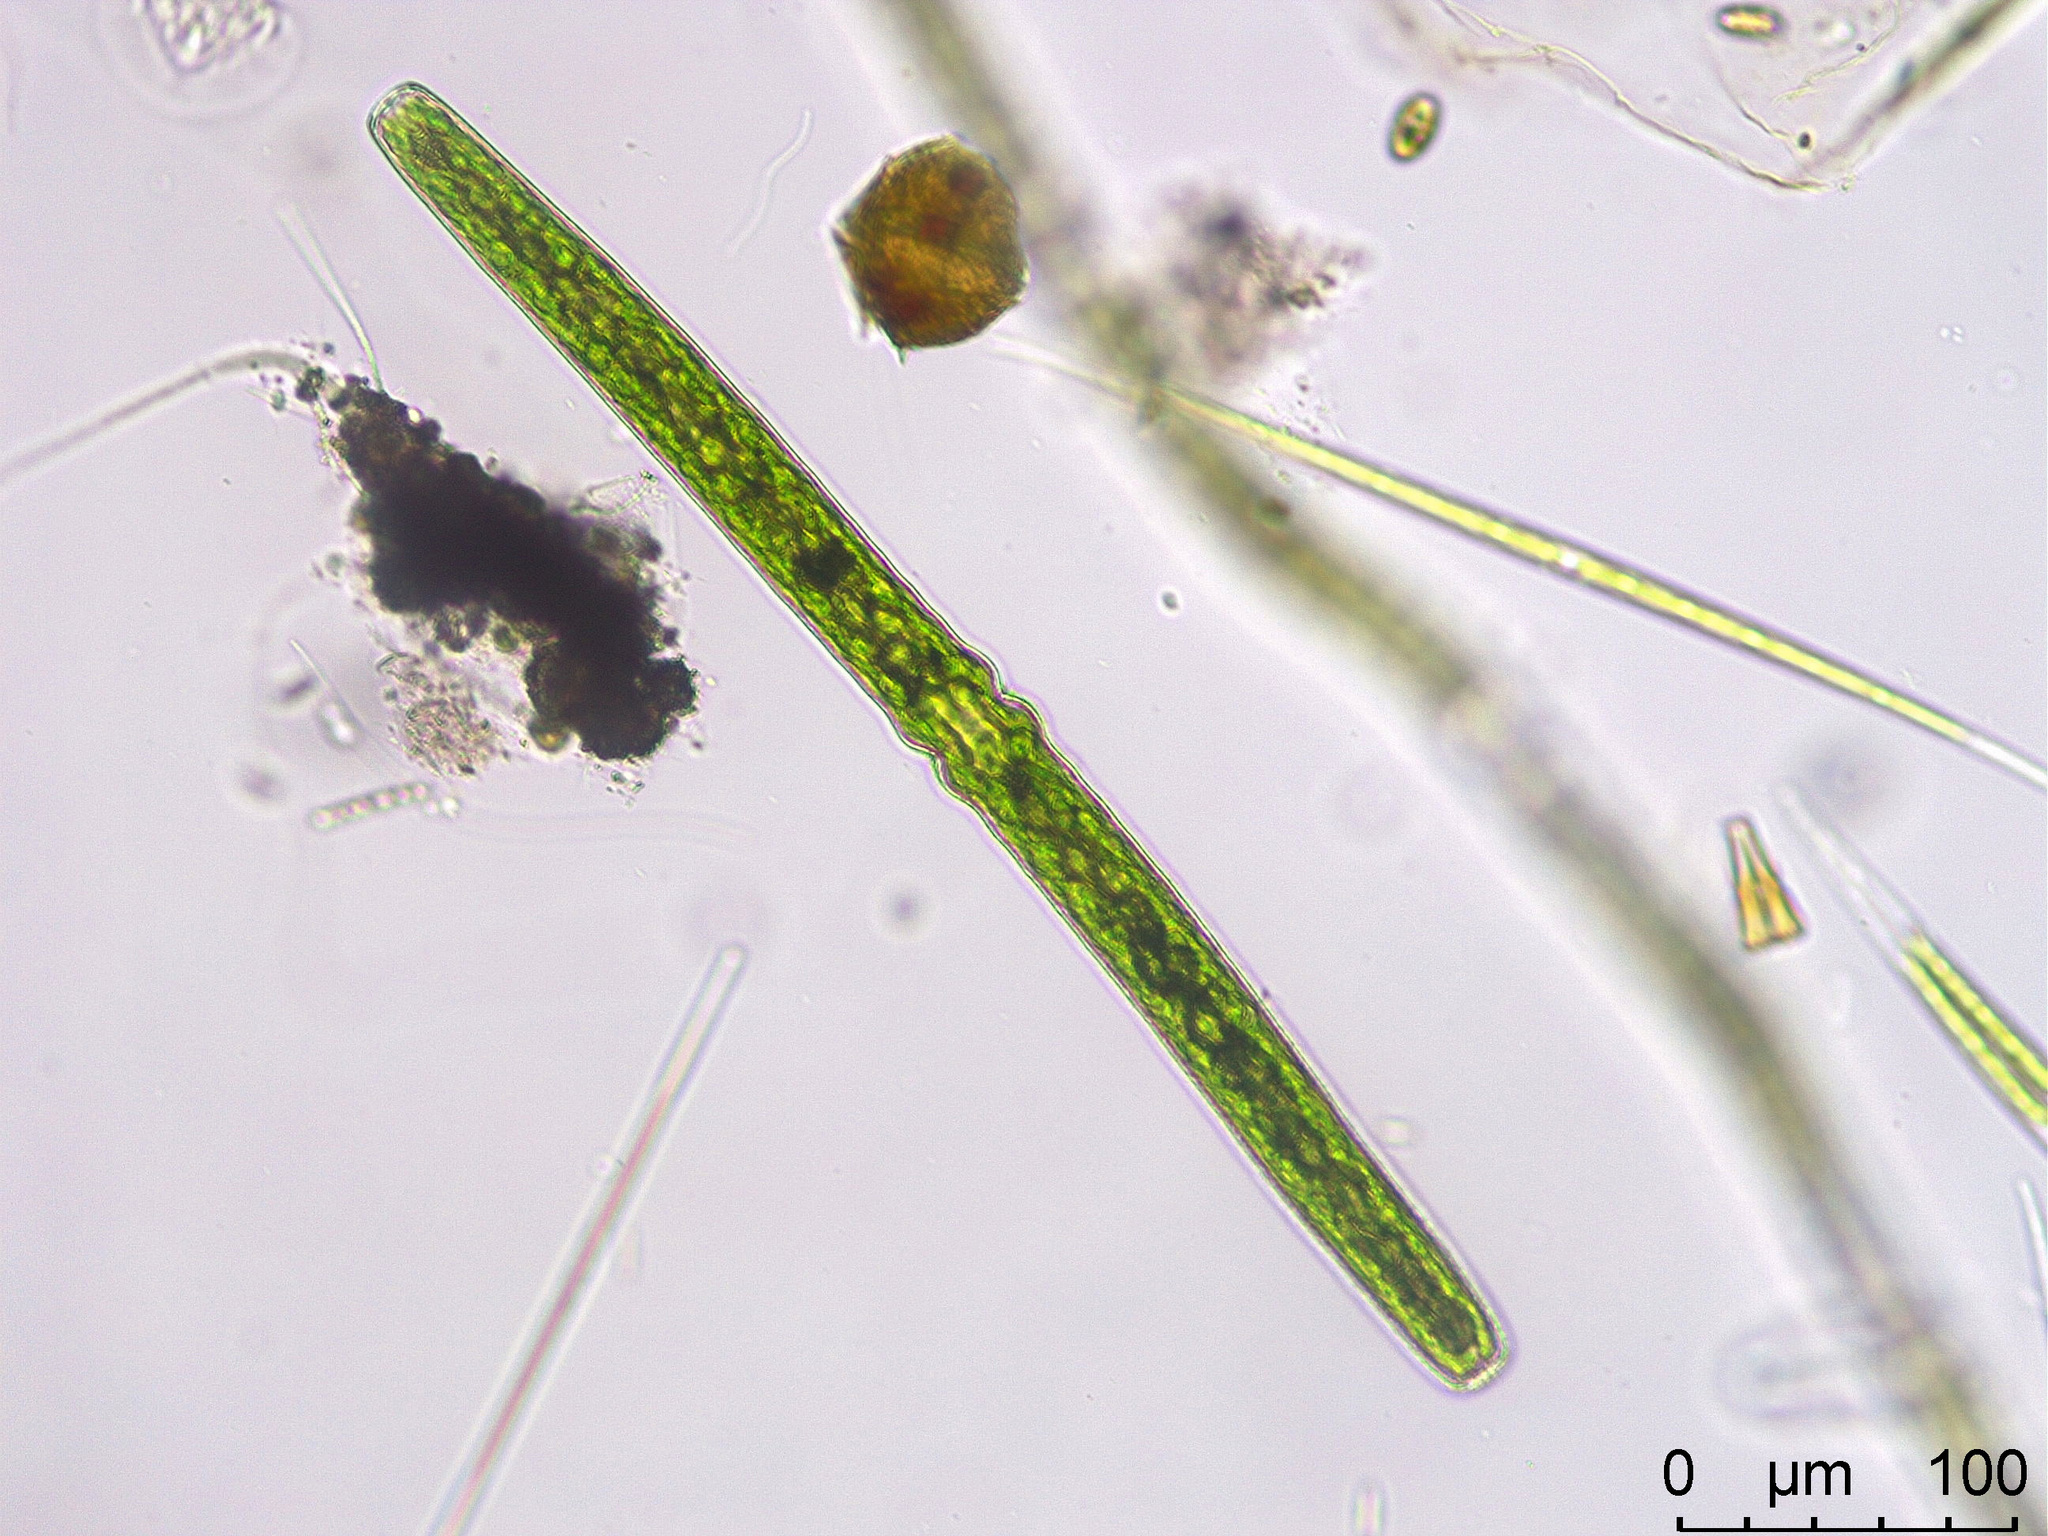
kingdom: Plantae
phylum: Charophyta
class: Conjugatophyceae
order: Desmidiales
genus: Pleurotaenium
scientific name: Pleurotaenium ehrenbergii
